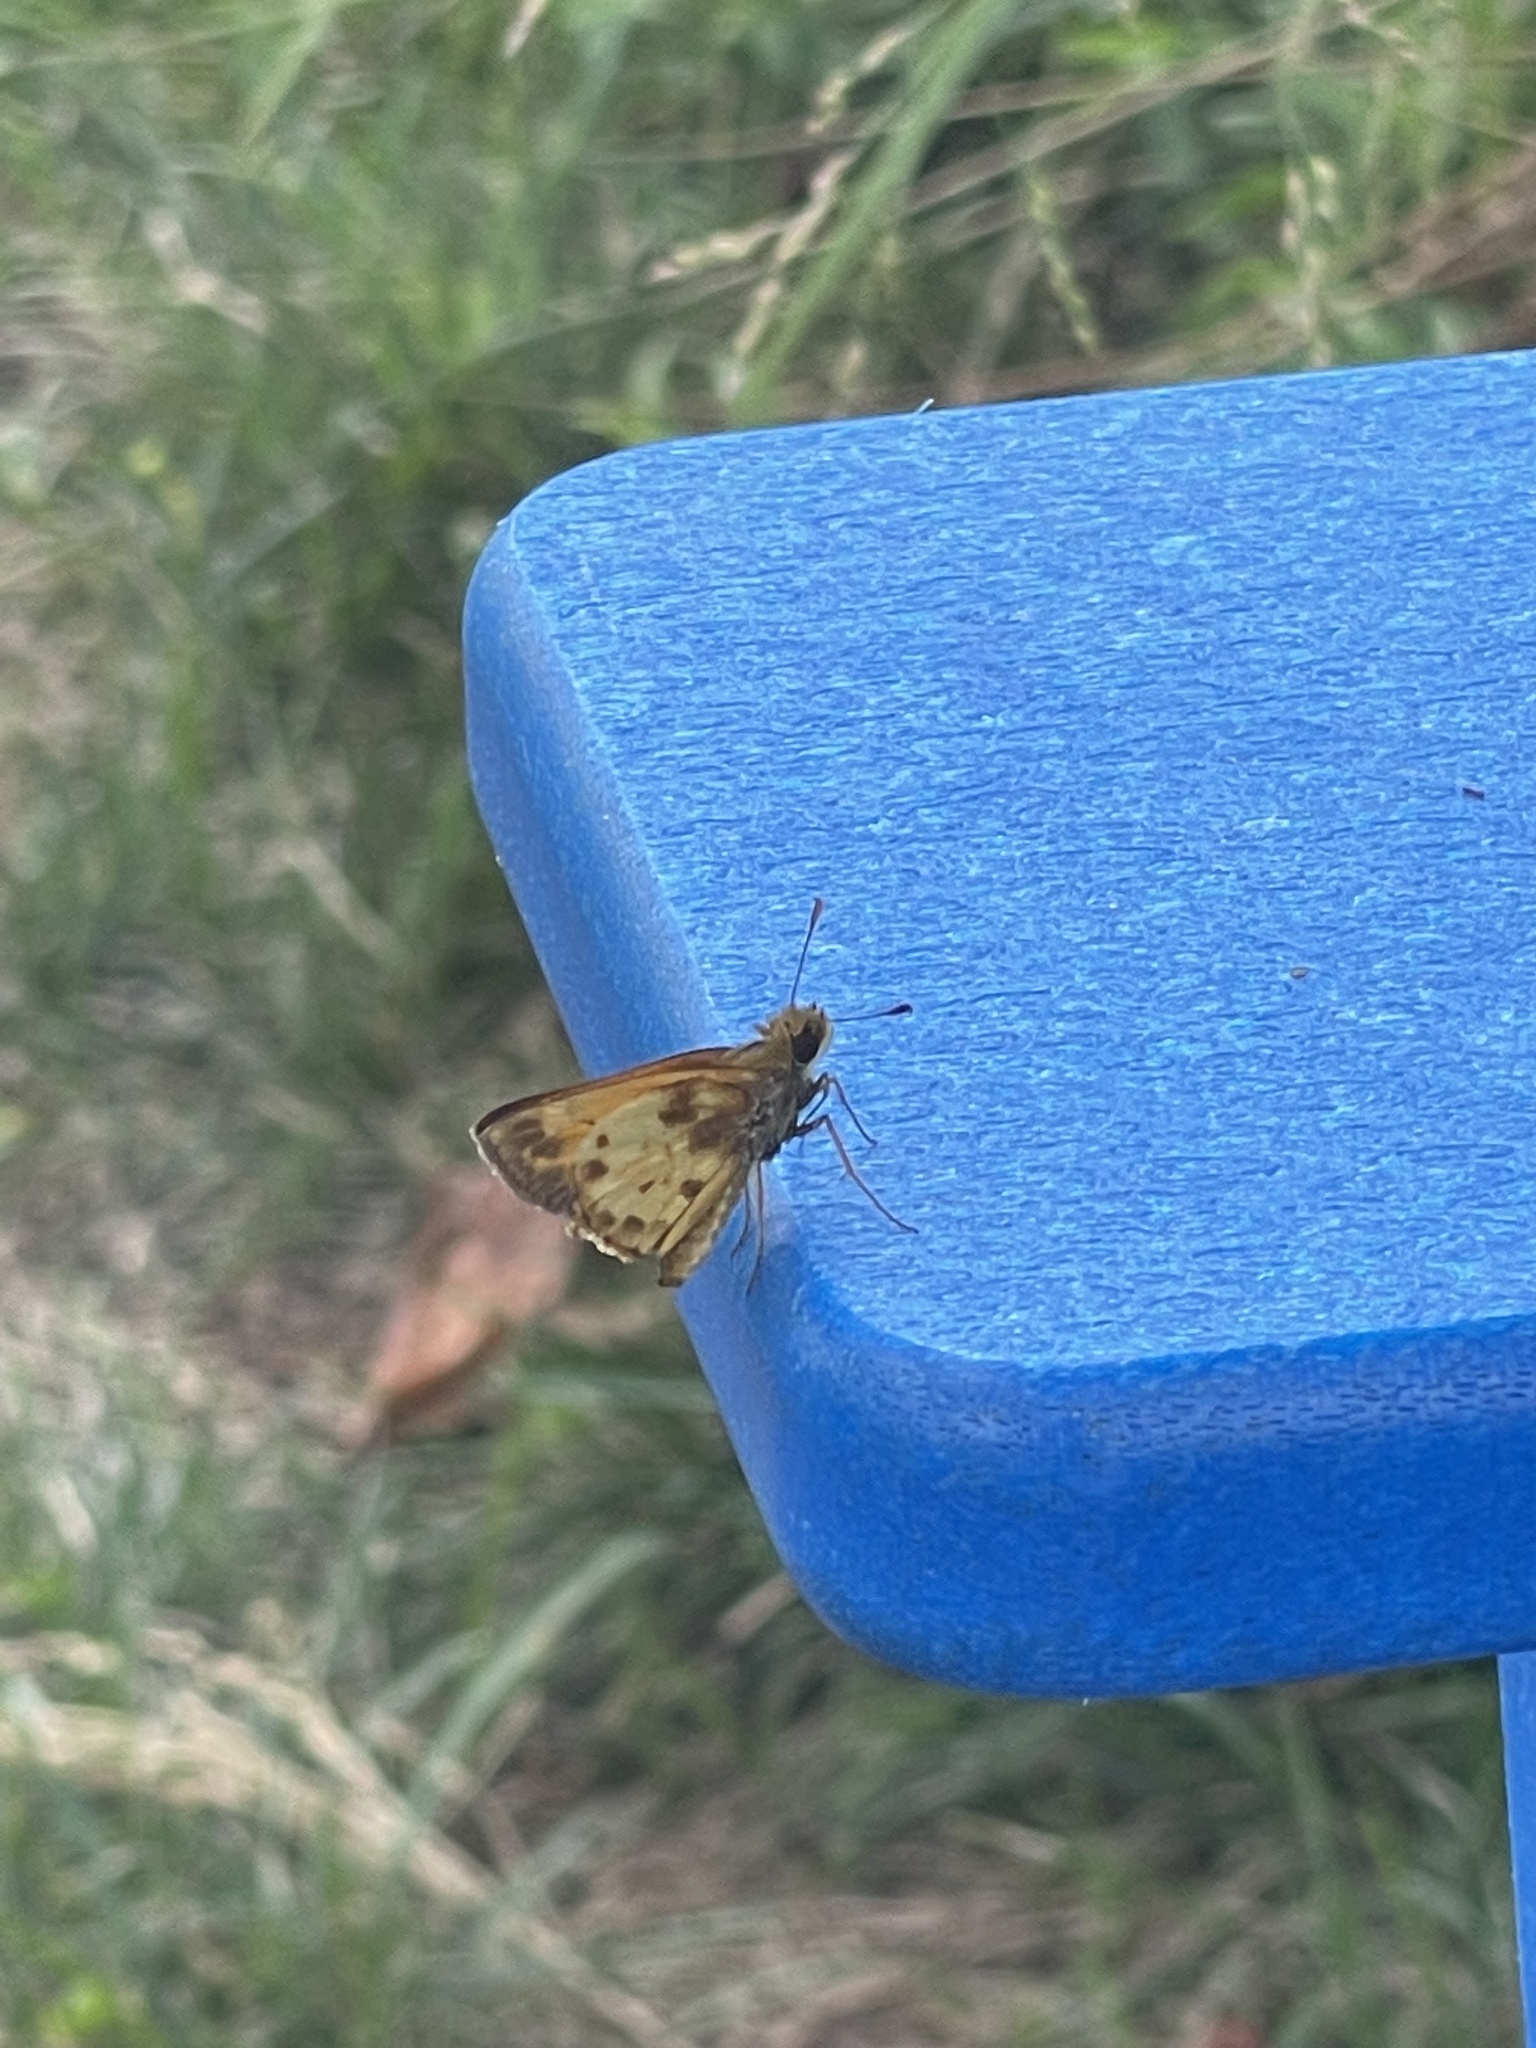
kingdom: Animalia
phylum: Arthropoda
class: Insecta
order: Lepidoptera
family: Hesperiidae
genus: Lon
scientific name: Lon zabulon
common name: Zabulon skipper
